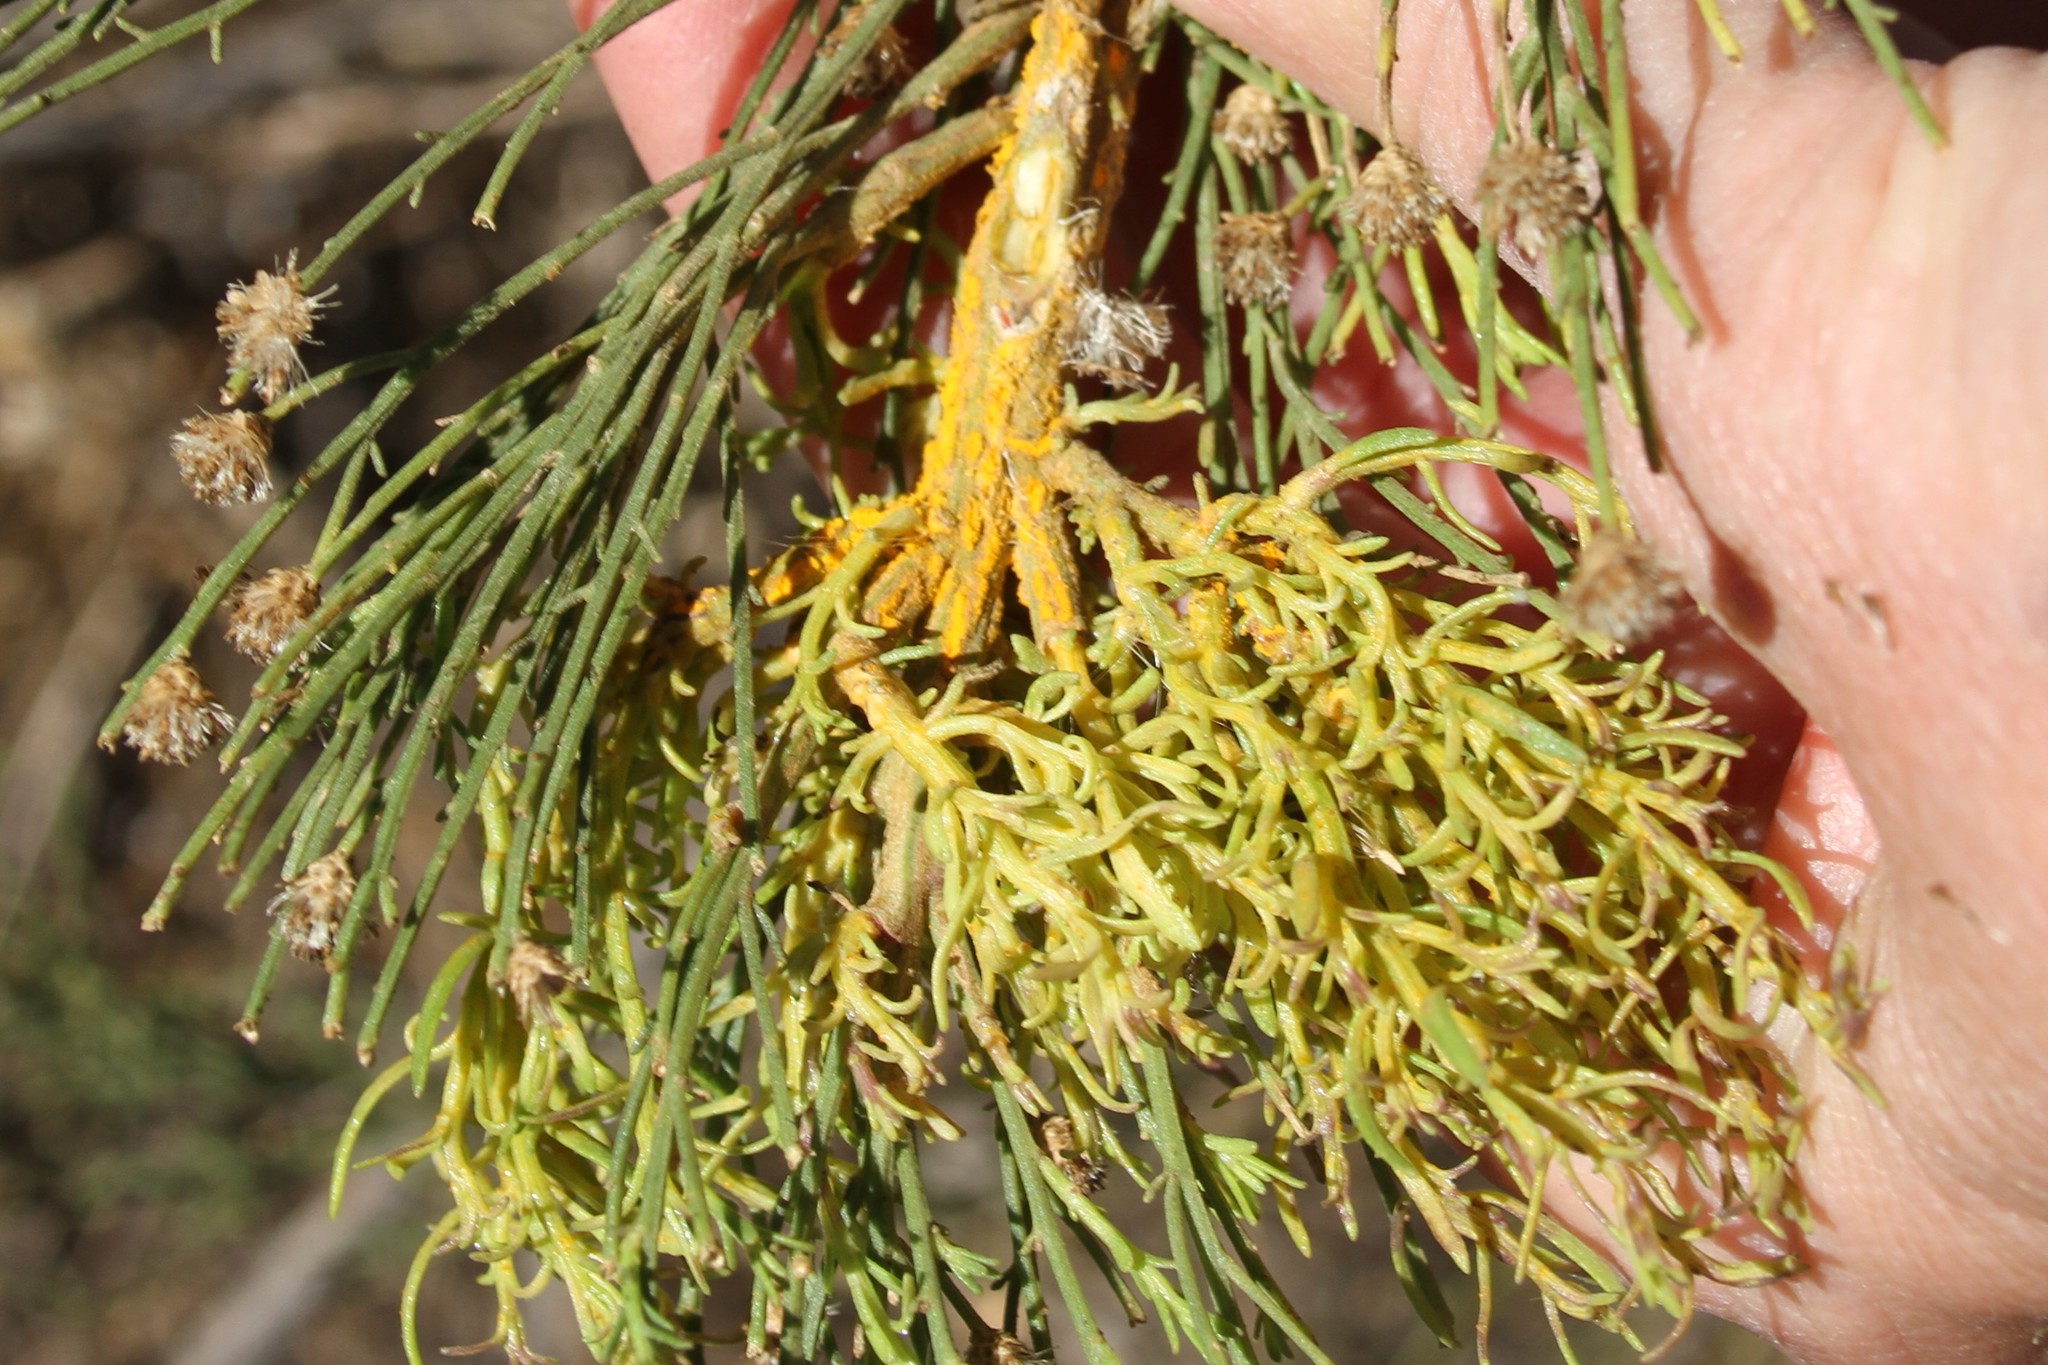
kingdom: Fungi
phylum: Basidiomycota
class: Pucciniomycetes
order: Pucciniales
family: Pucciniaceae
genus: Eriosporangium
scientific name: Eriosporangium evadens
